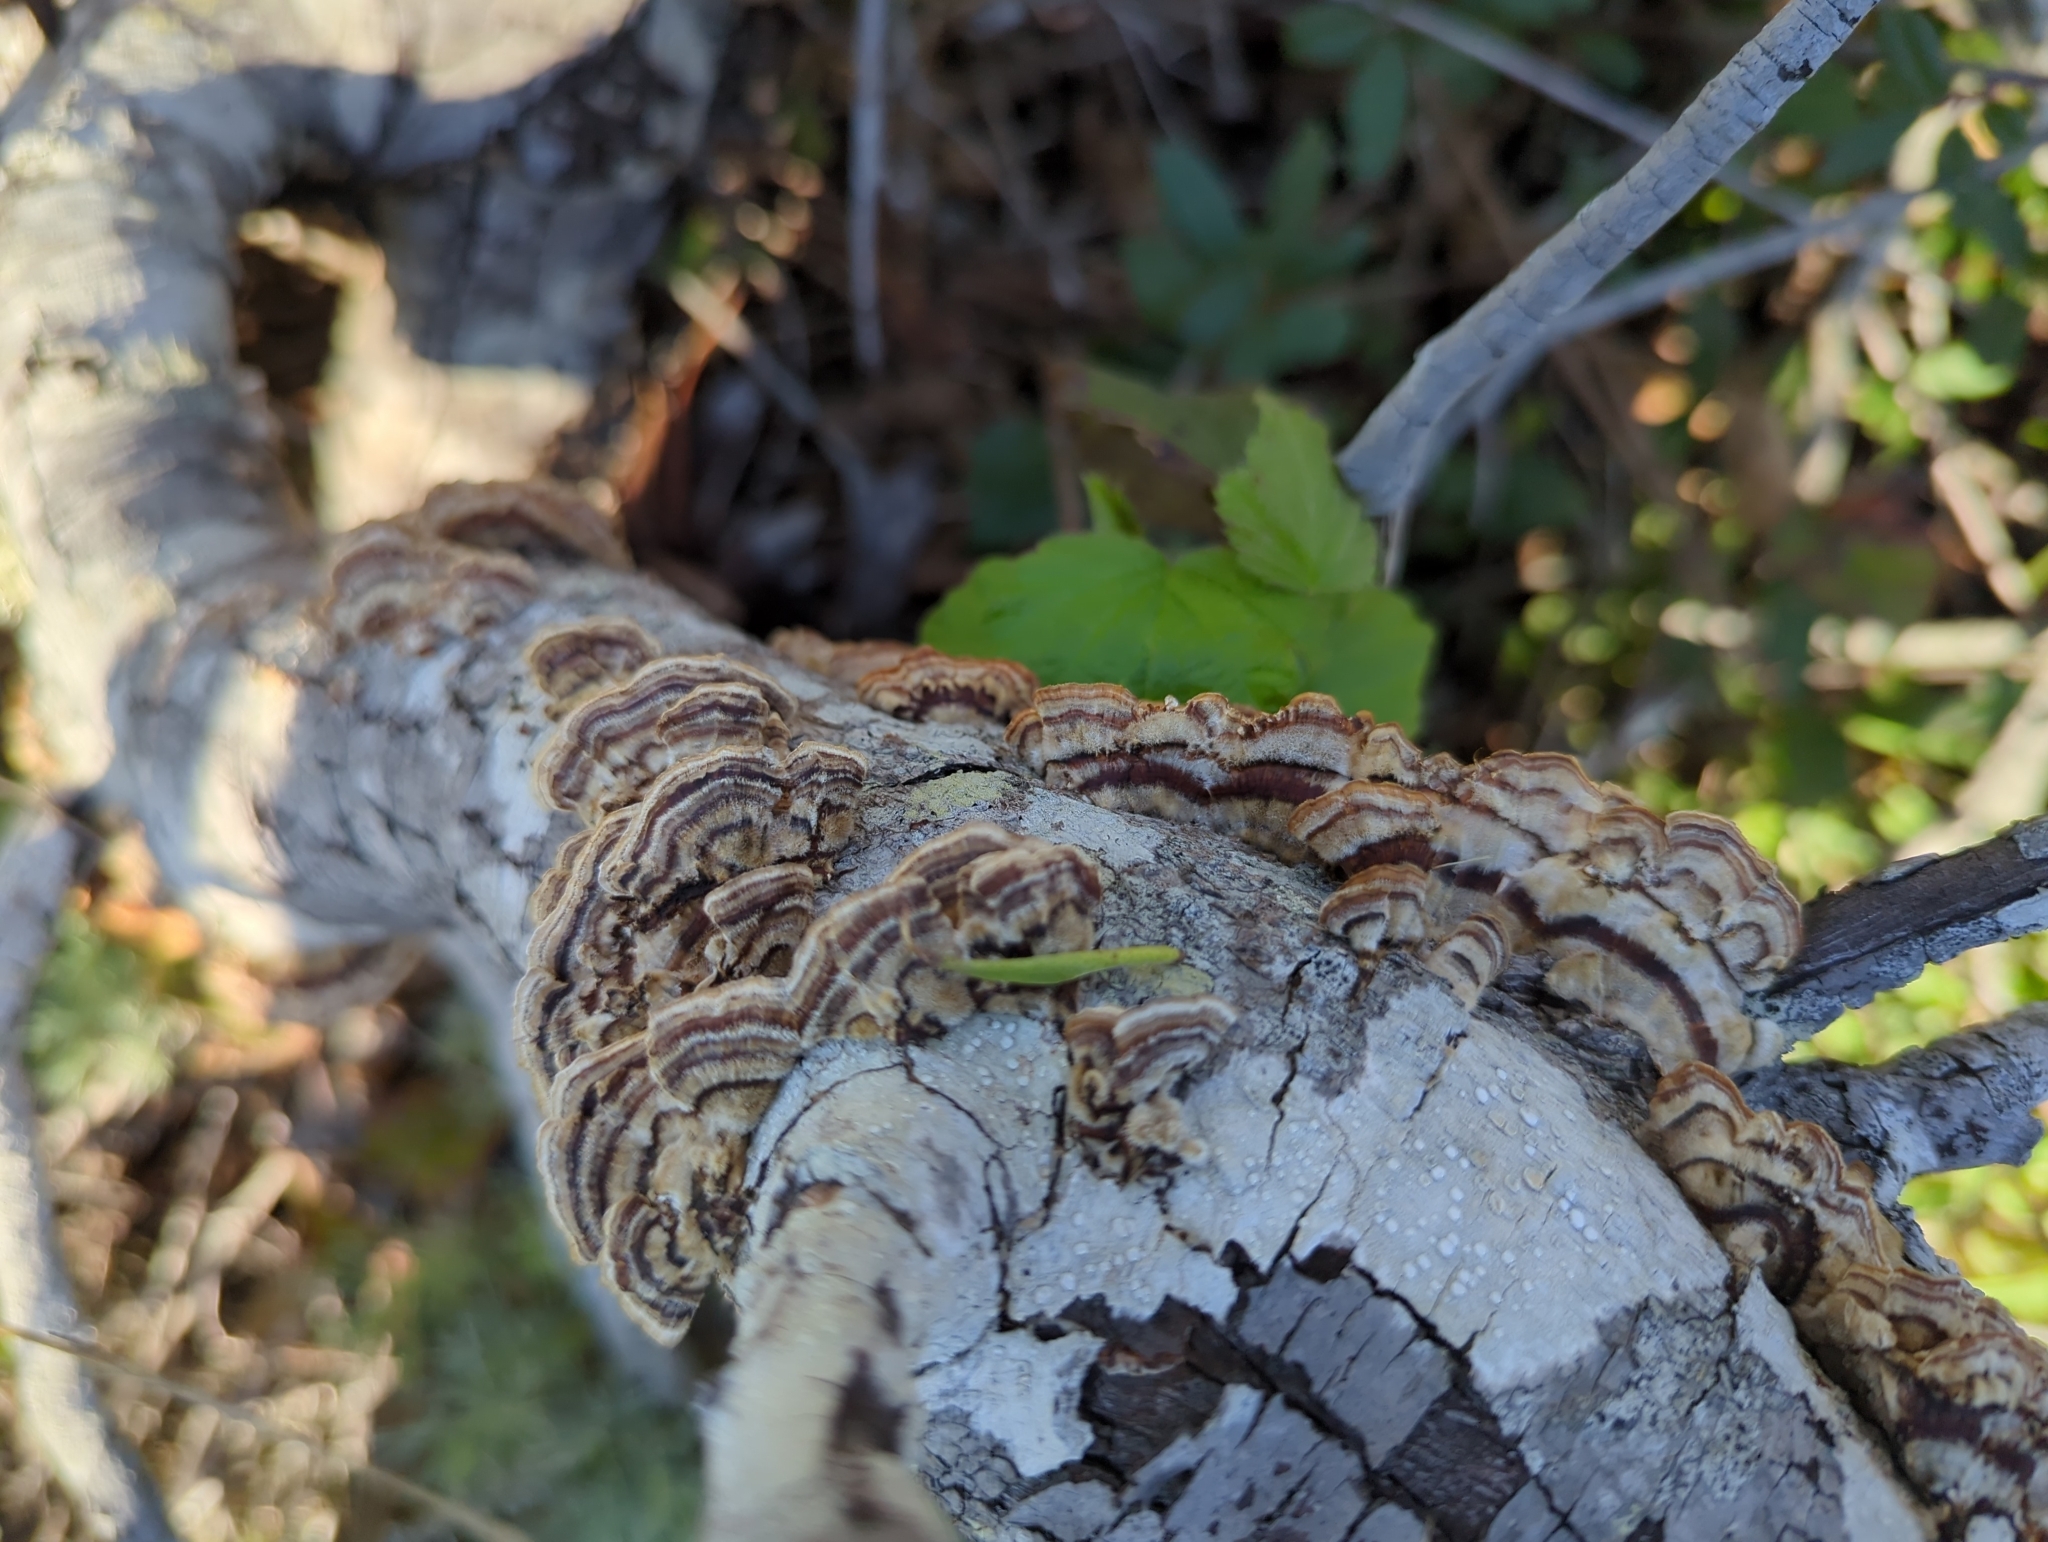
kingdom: Fungi
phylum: Basidiomycota
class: Agaricomycetes
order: Polyporales
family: Polyporaceae
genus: Trametes
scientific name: Trametes versicolor
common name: Turkeytail
